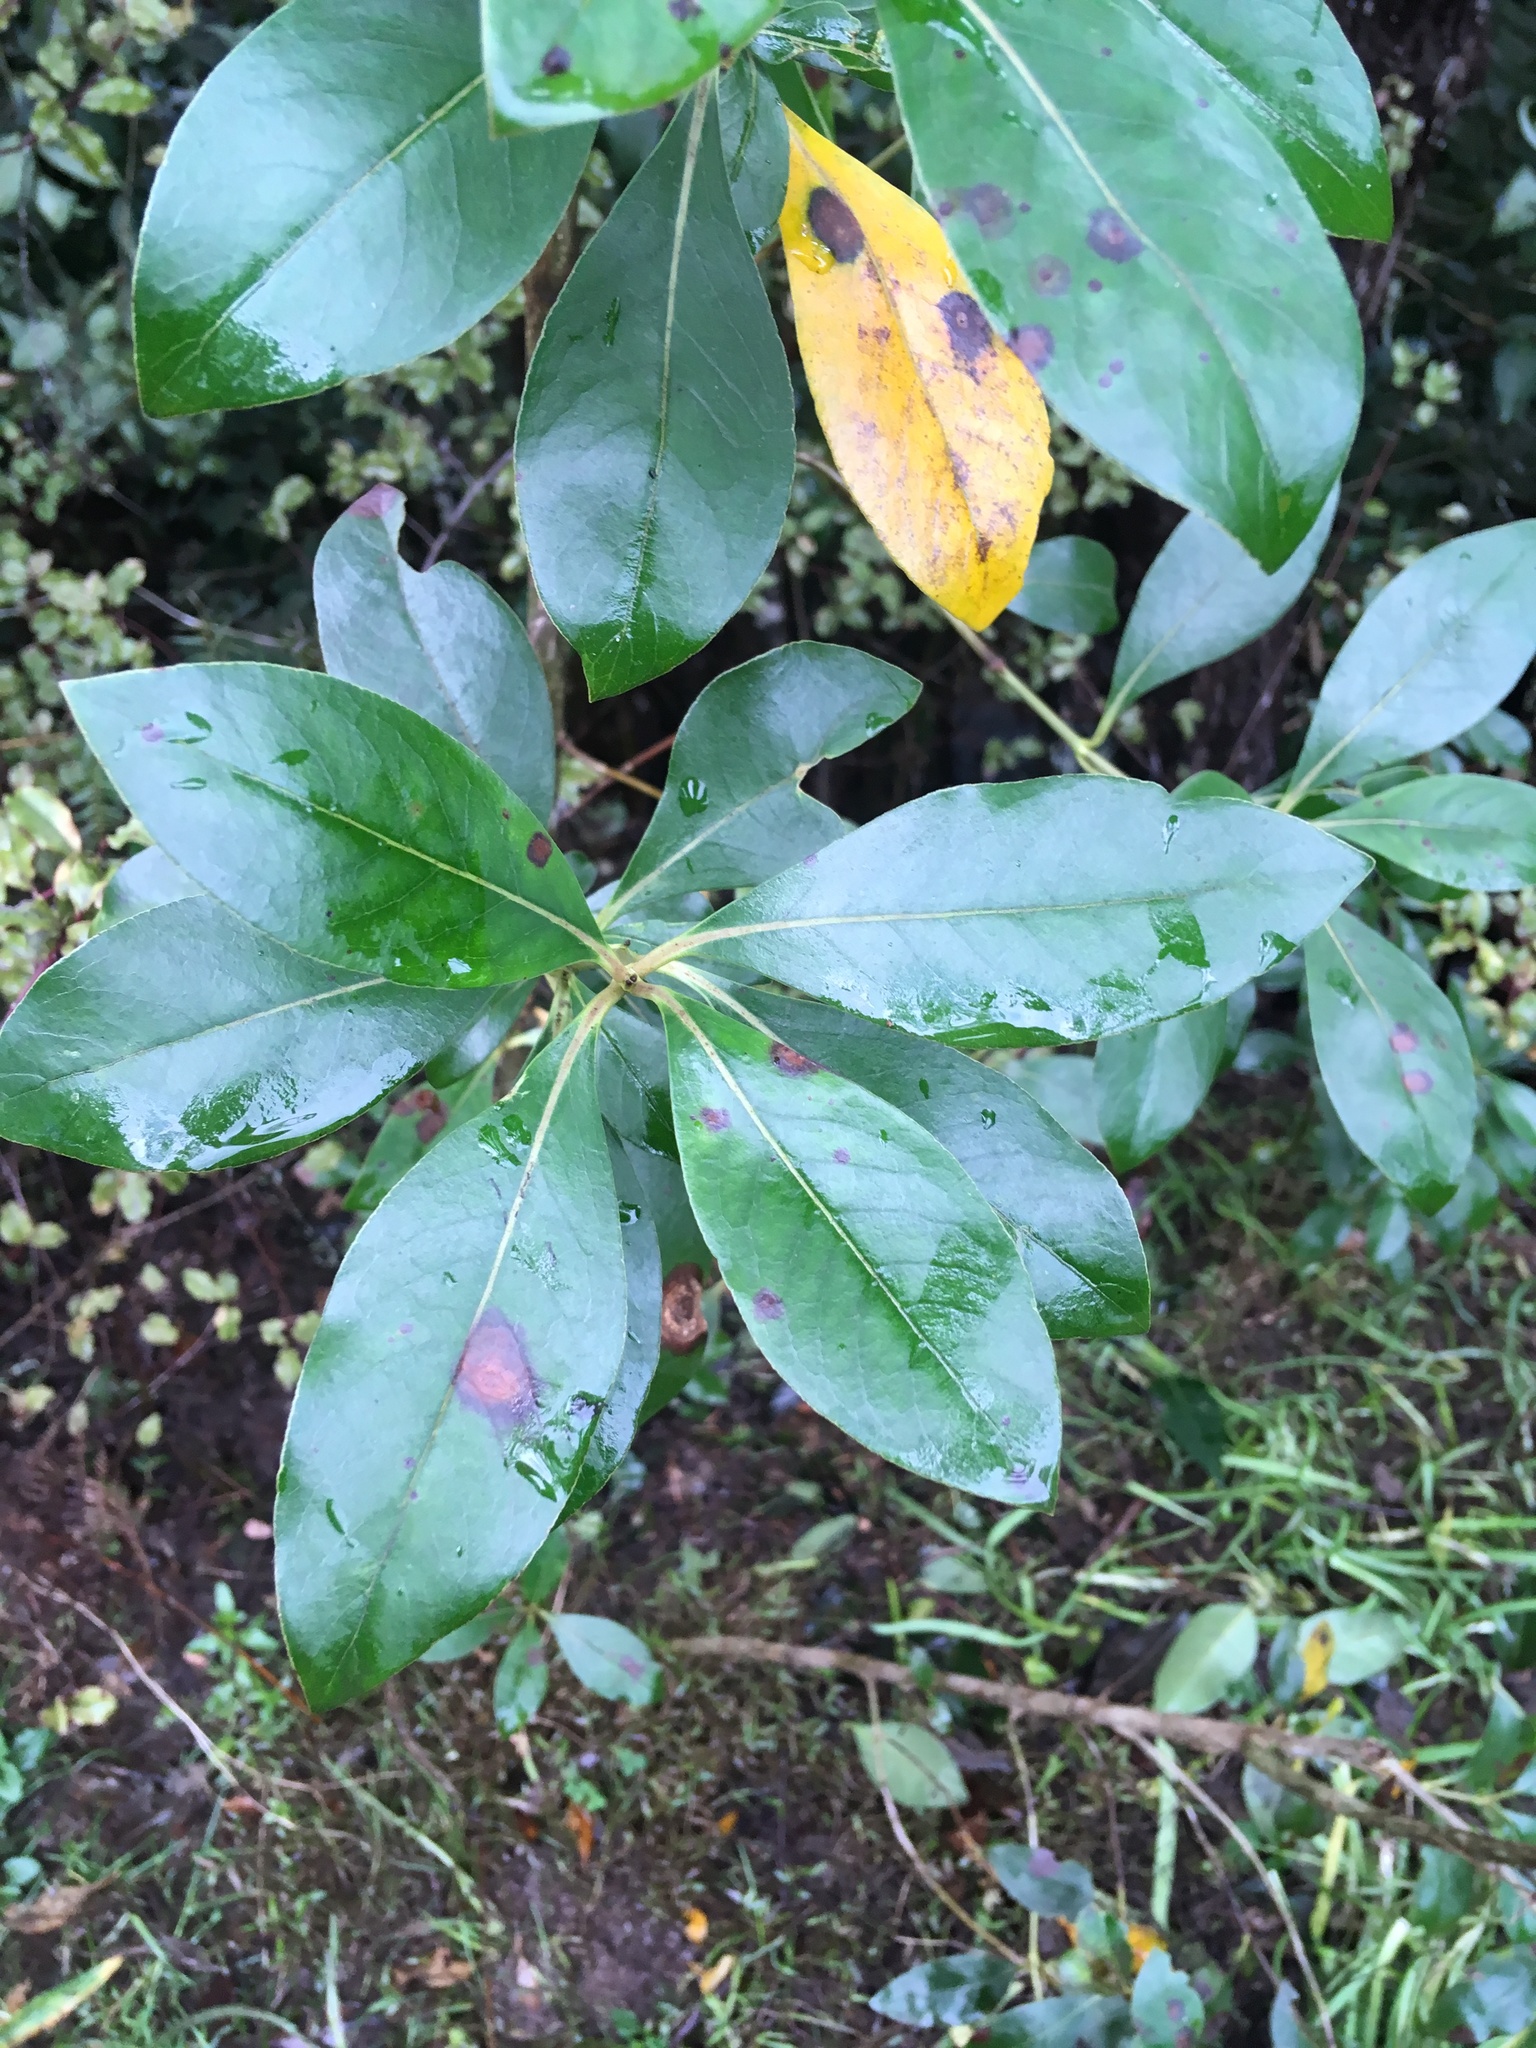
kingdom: Plantae
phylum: Tracheophyta
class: Magnoliopsida
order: Gentianales
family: Rubiaceae
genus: Coprosma
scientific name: Coprosma robusta
